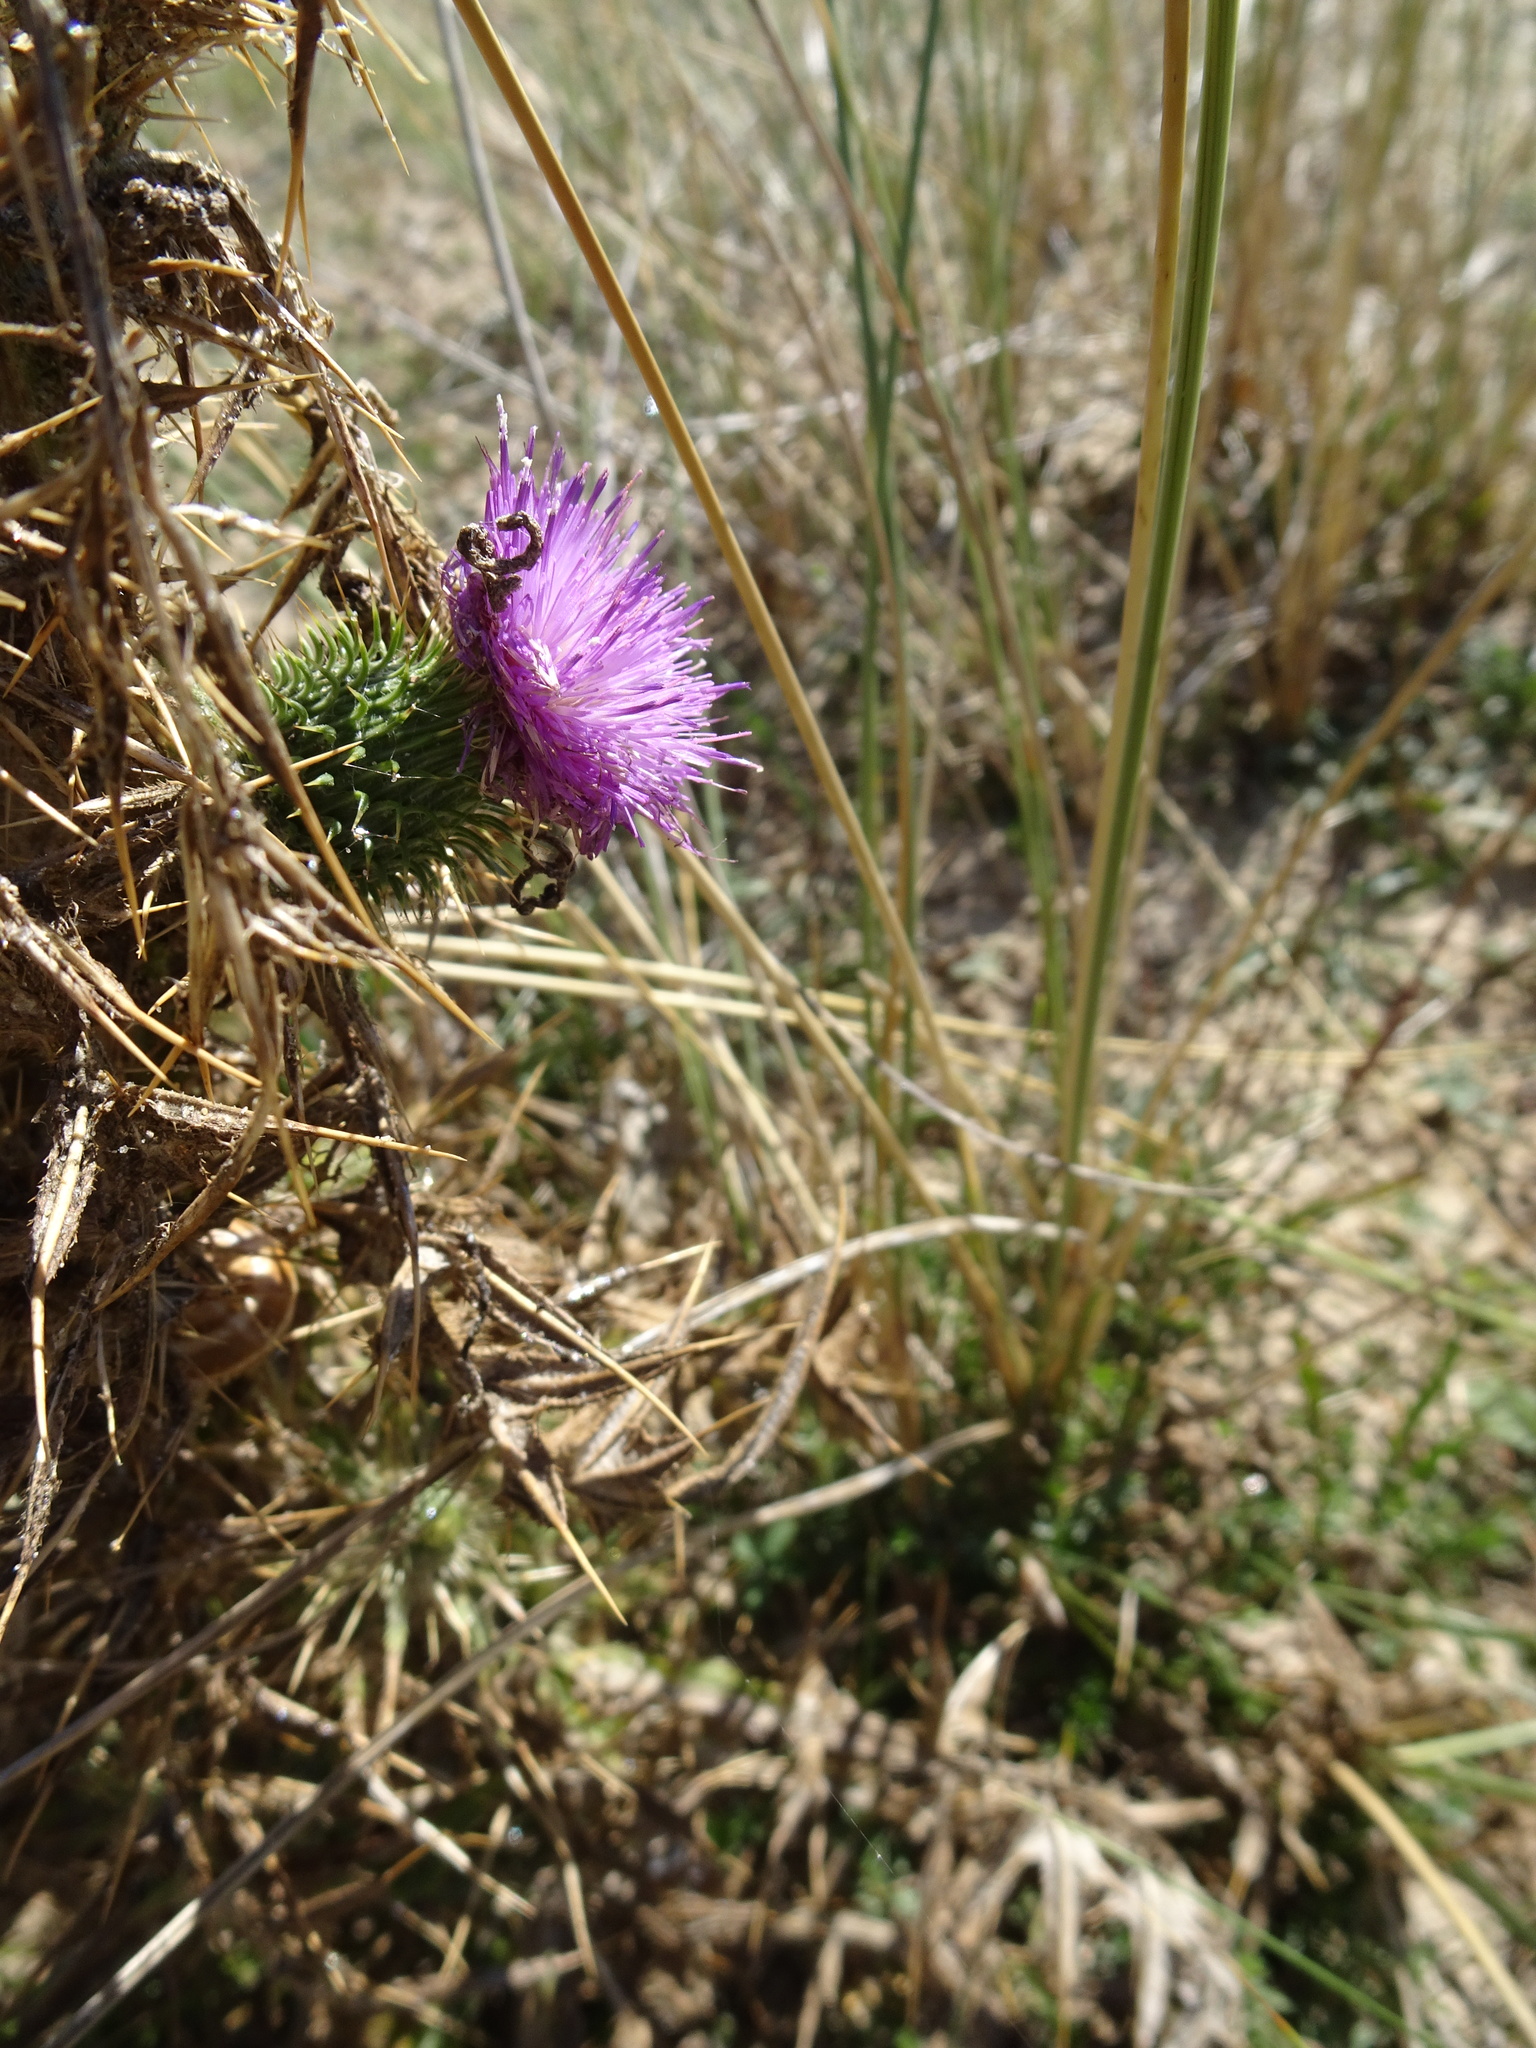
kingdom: Plantae
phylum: Tracheophyta
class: Magnoliopsida
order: Asterales
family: Asteraceae
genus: Cirsium
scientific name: Cirsium vulgare
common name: Bull thistle
